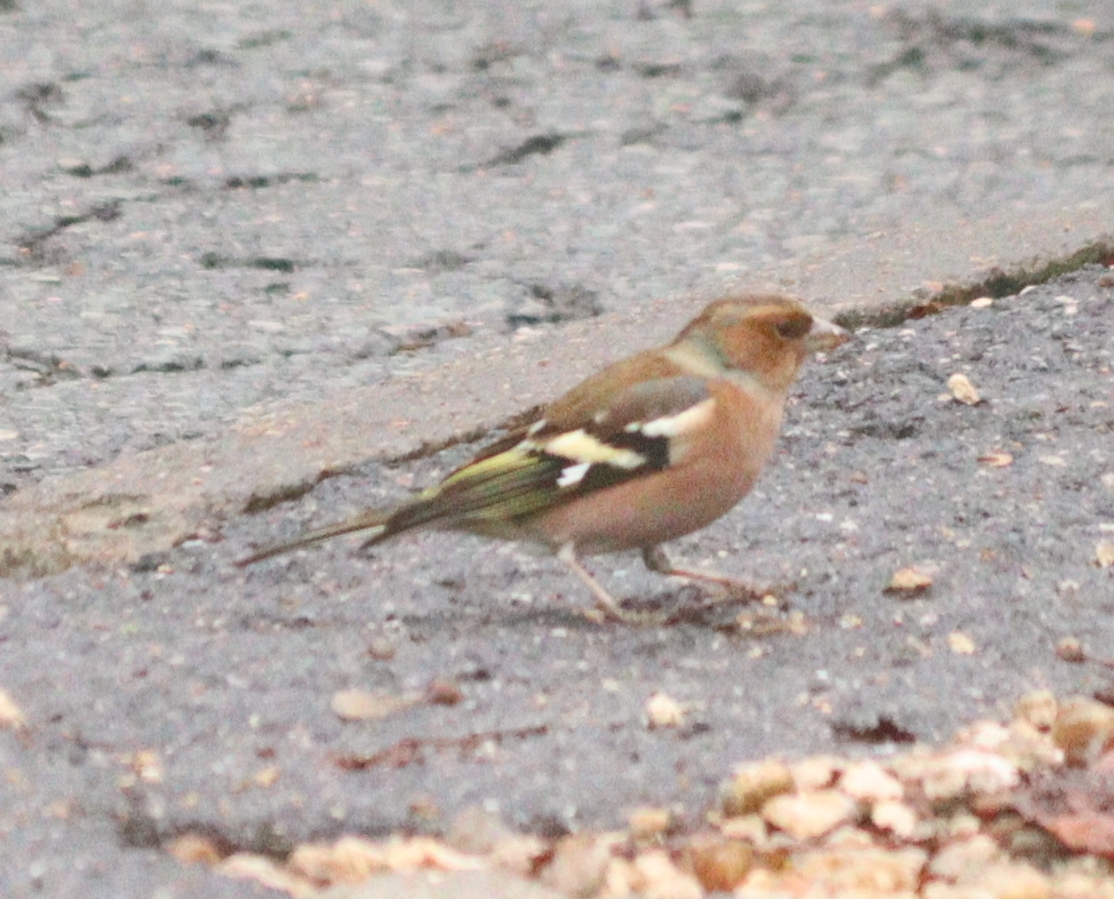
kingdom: Animalia
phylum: Chordata
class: Aves
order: Passeriformes
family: Fringillidae
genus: Fringilla
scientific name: Fringilla coelebs
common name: Common chaffinch
